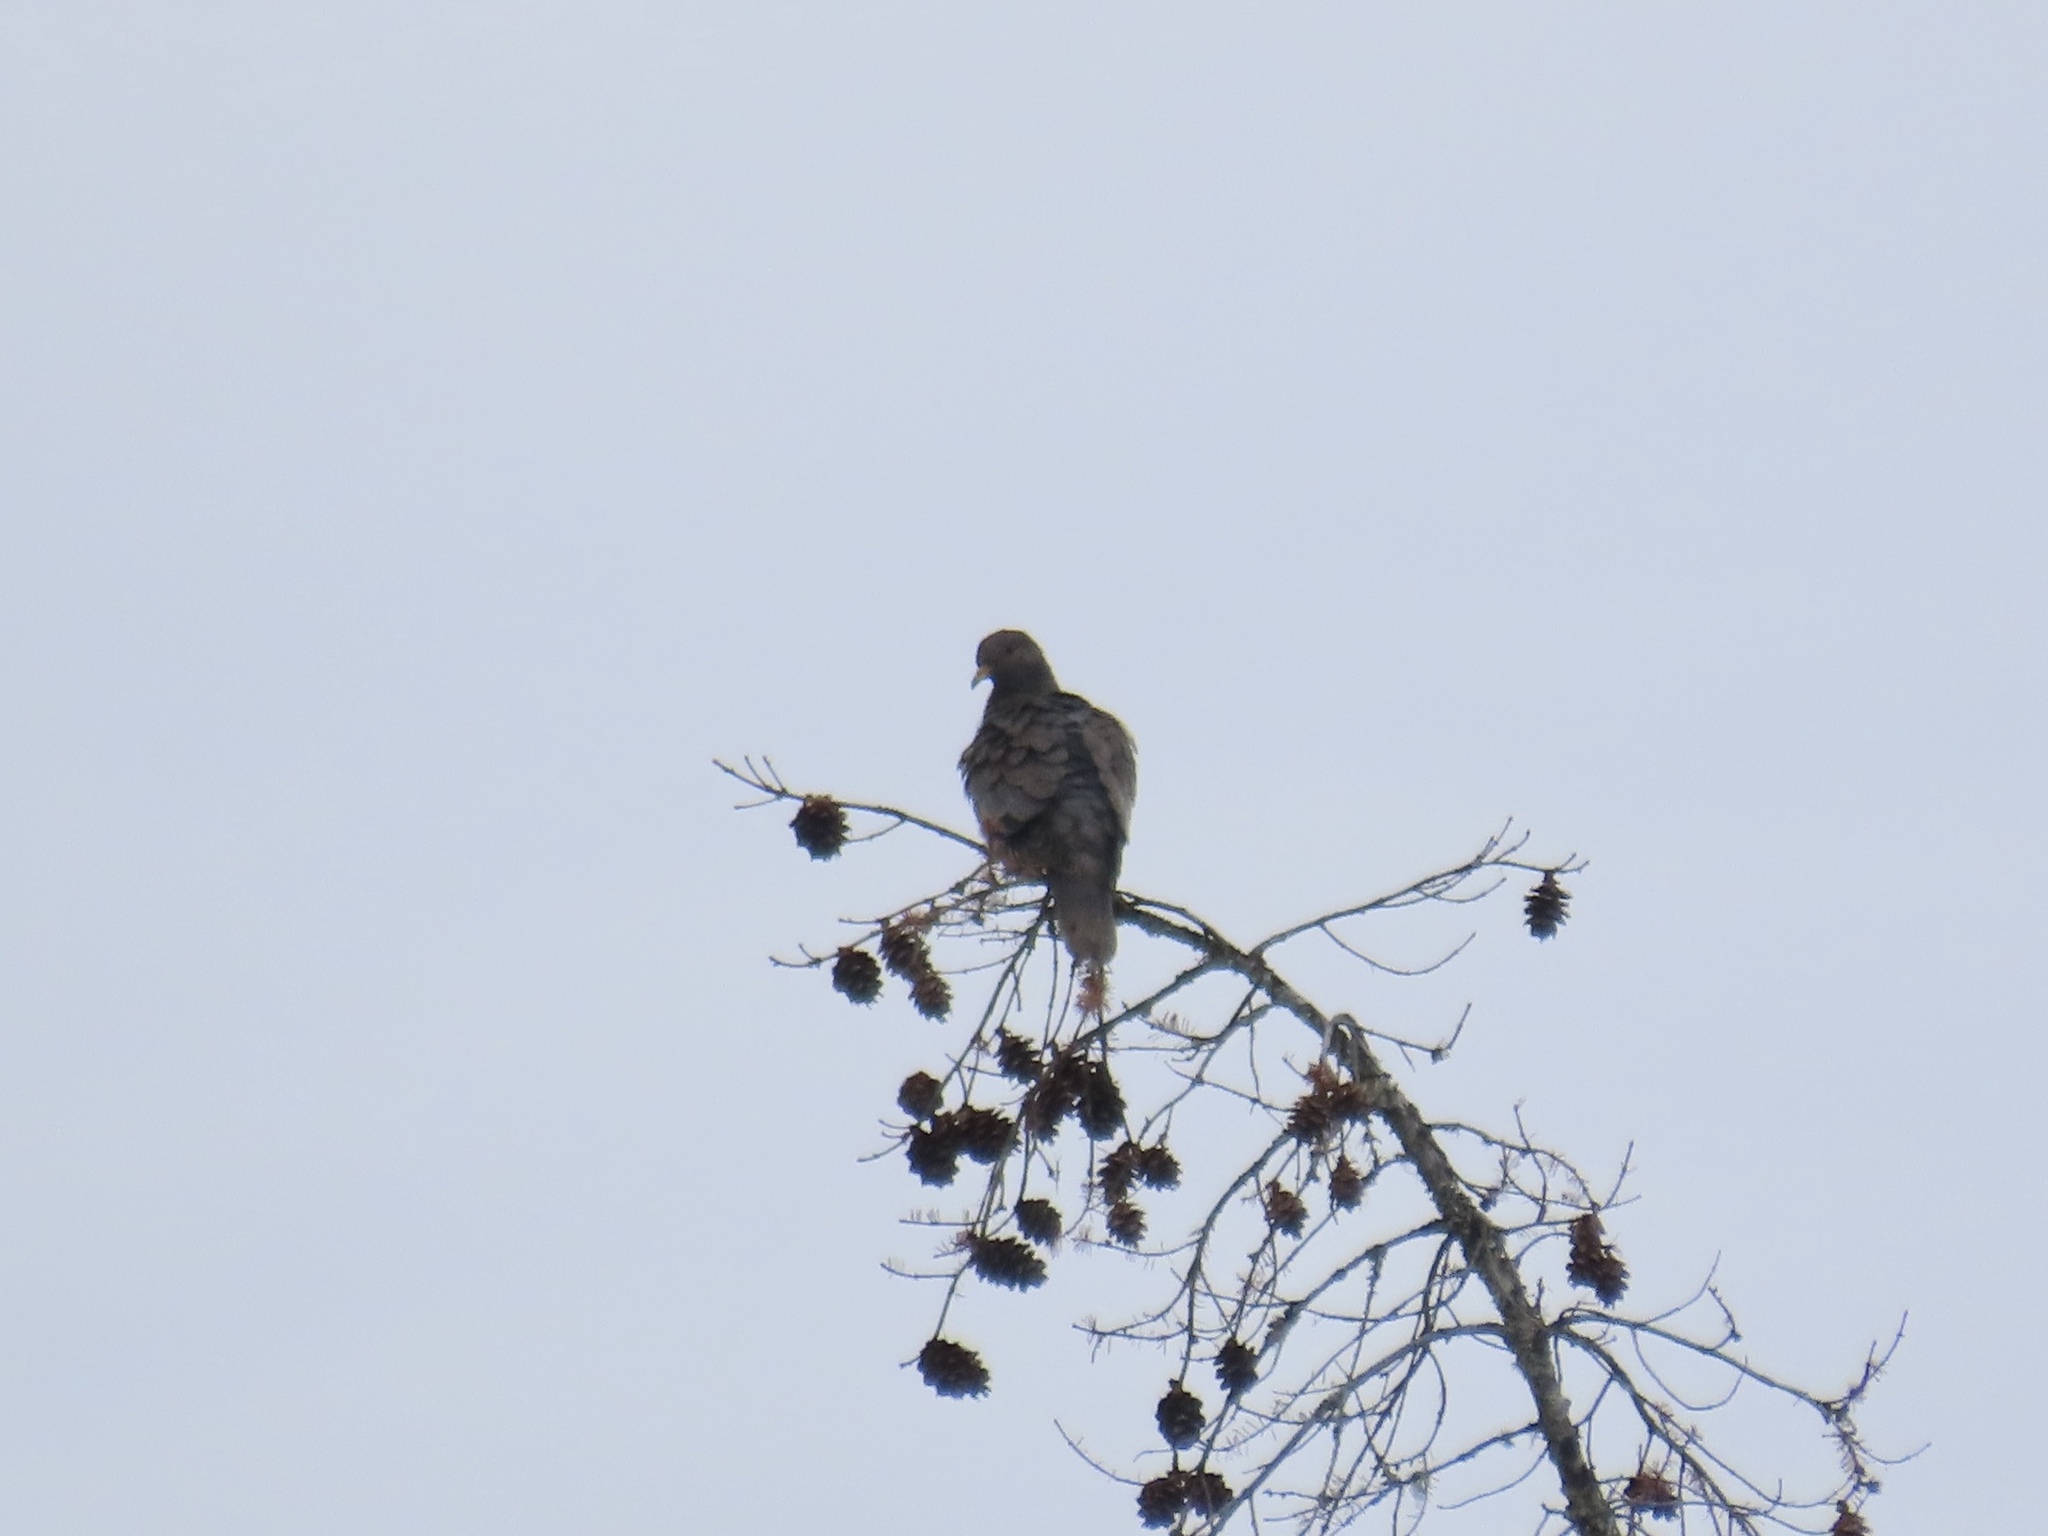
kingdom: Animalia
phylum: Chordata
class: Aves
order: Columbiformes
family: Columbidae
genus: Patagioenas
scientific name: Patagioenas fasciata
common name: Band-tailed pigeon
